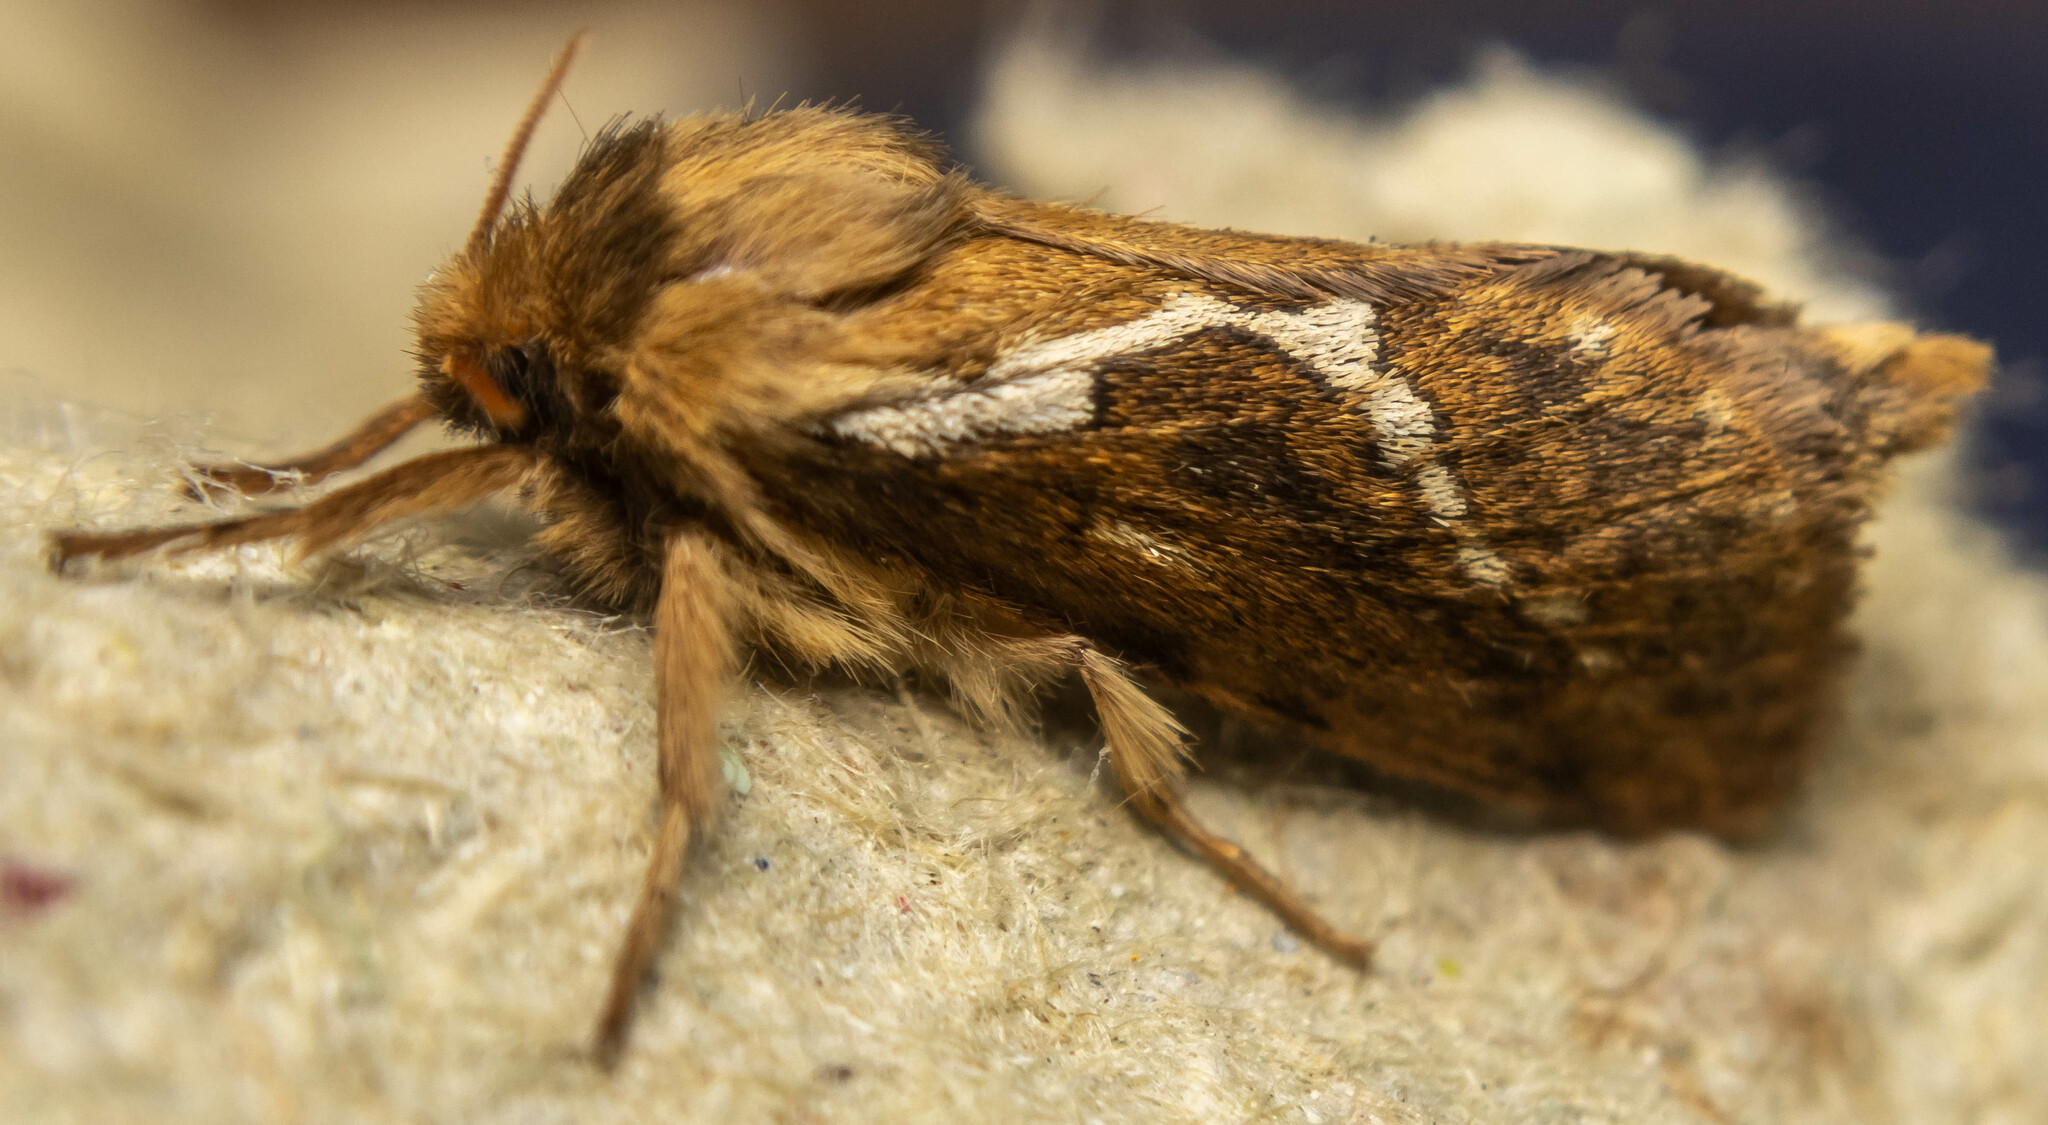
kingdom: Animalia
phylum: Arthropoda
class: Insecta
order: Lepidoptera
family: Hepialidae
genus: Korscheltellus
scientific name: Korscheltellus lupulina
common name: Common swift
